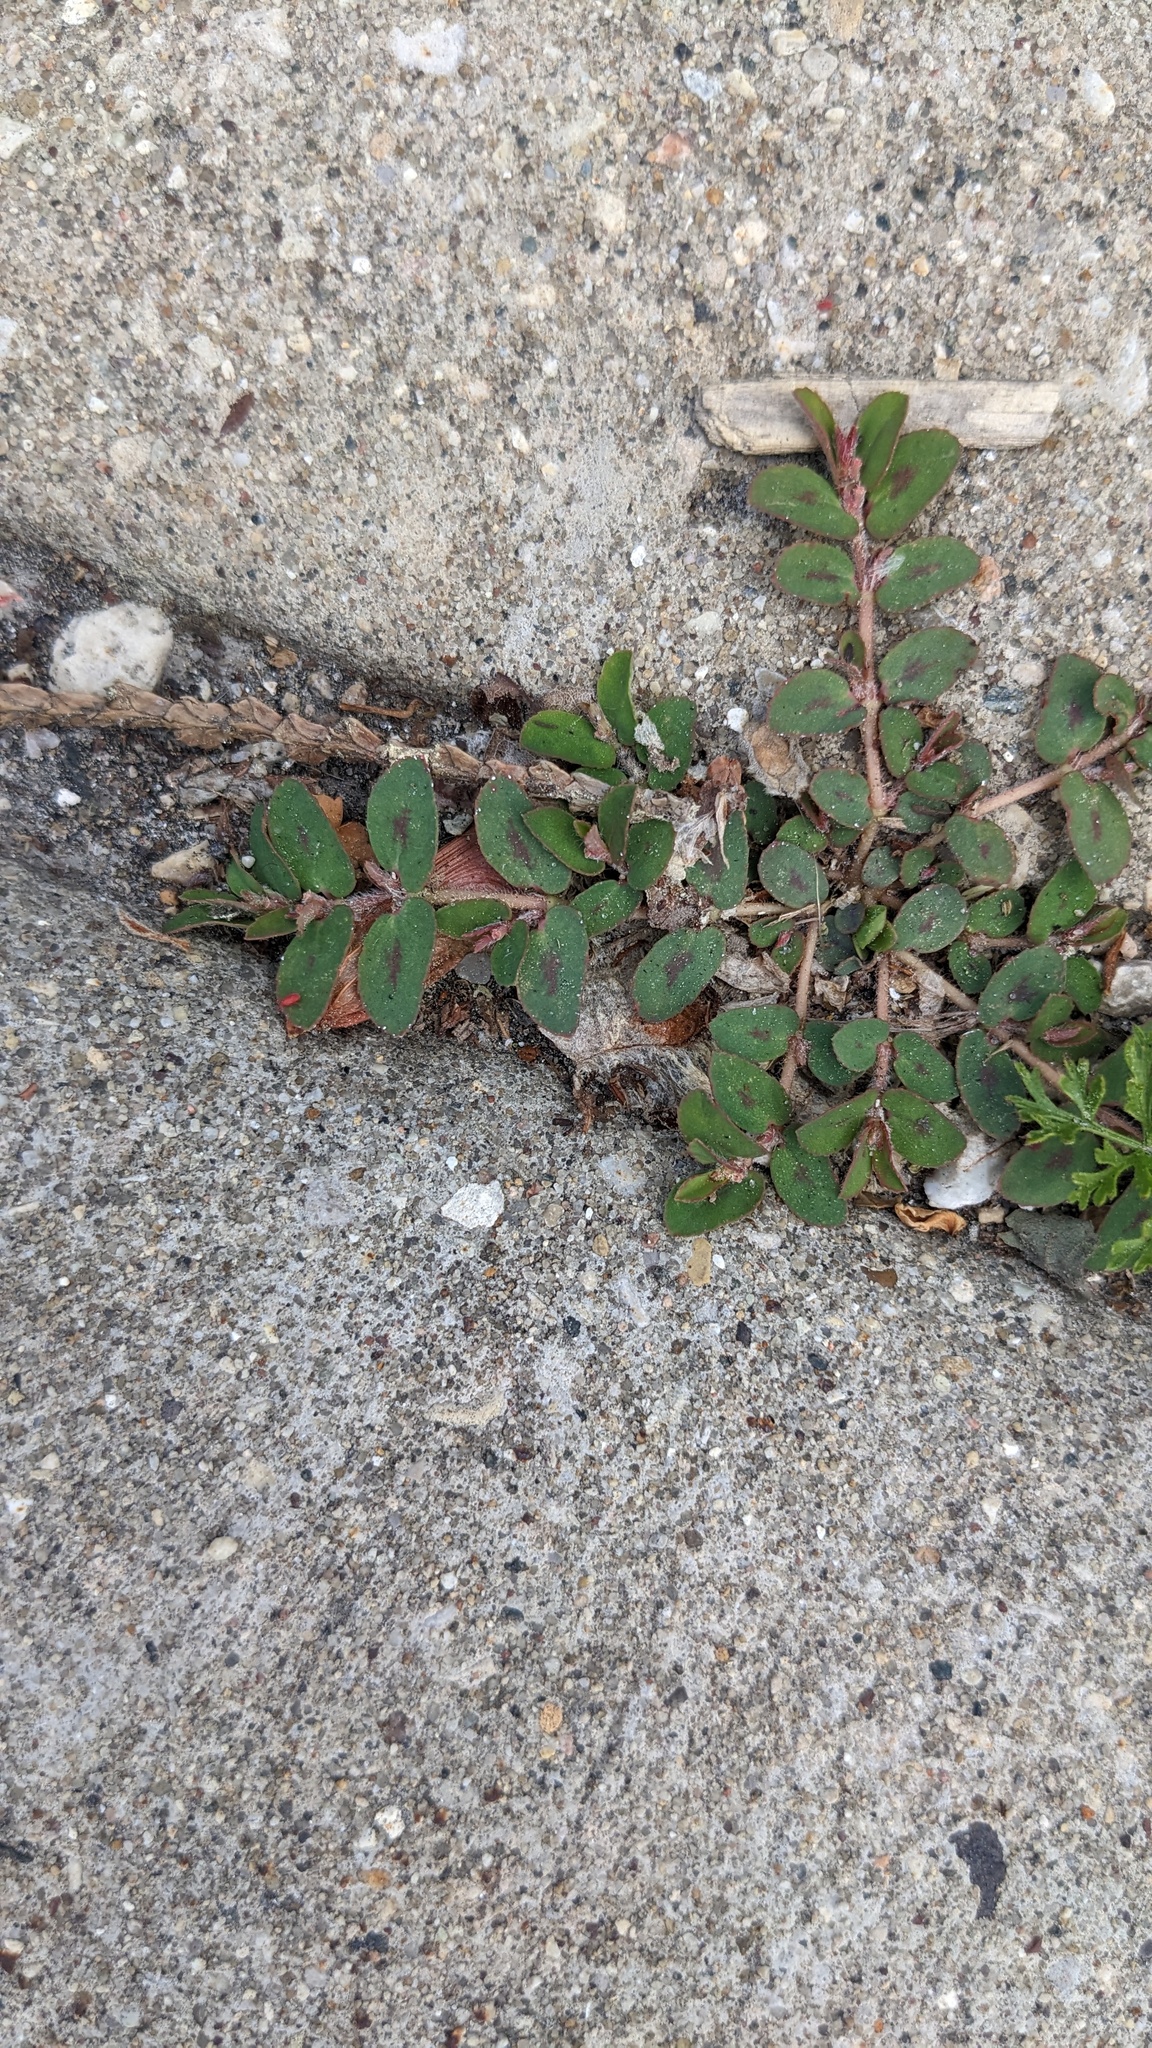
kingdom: Plantae
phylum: Tracheophyta
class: Magnoliopsida
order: Malpighiales
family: Euphorbiaceae
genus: Euphorbia
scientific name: Euphorbia maculata
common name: Spotted spurge
